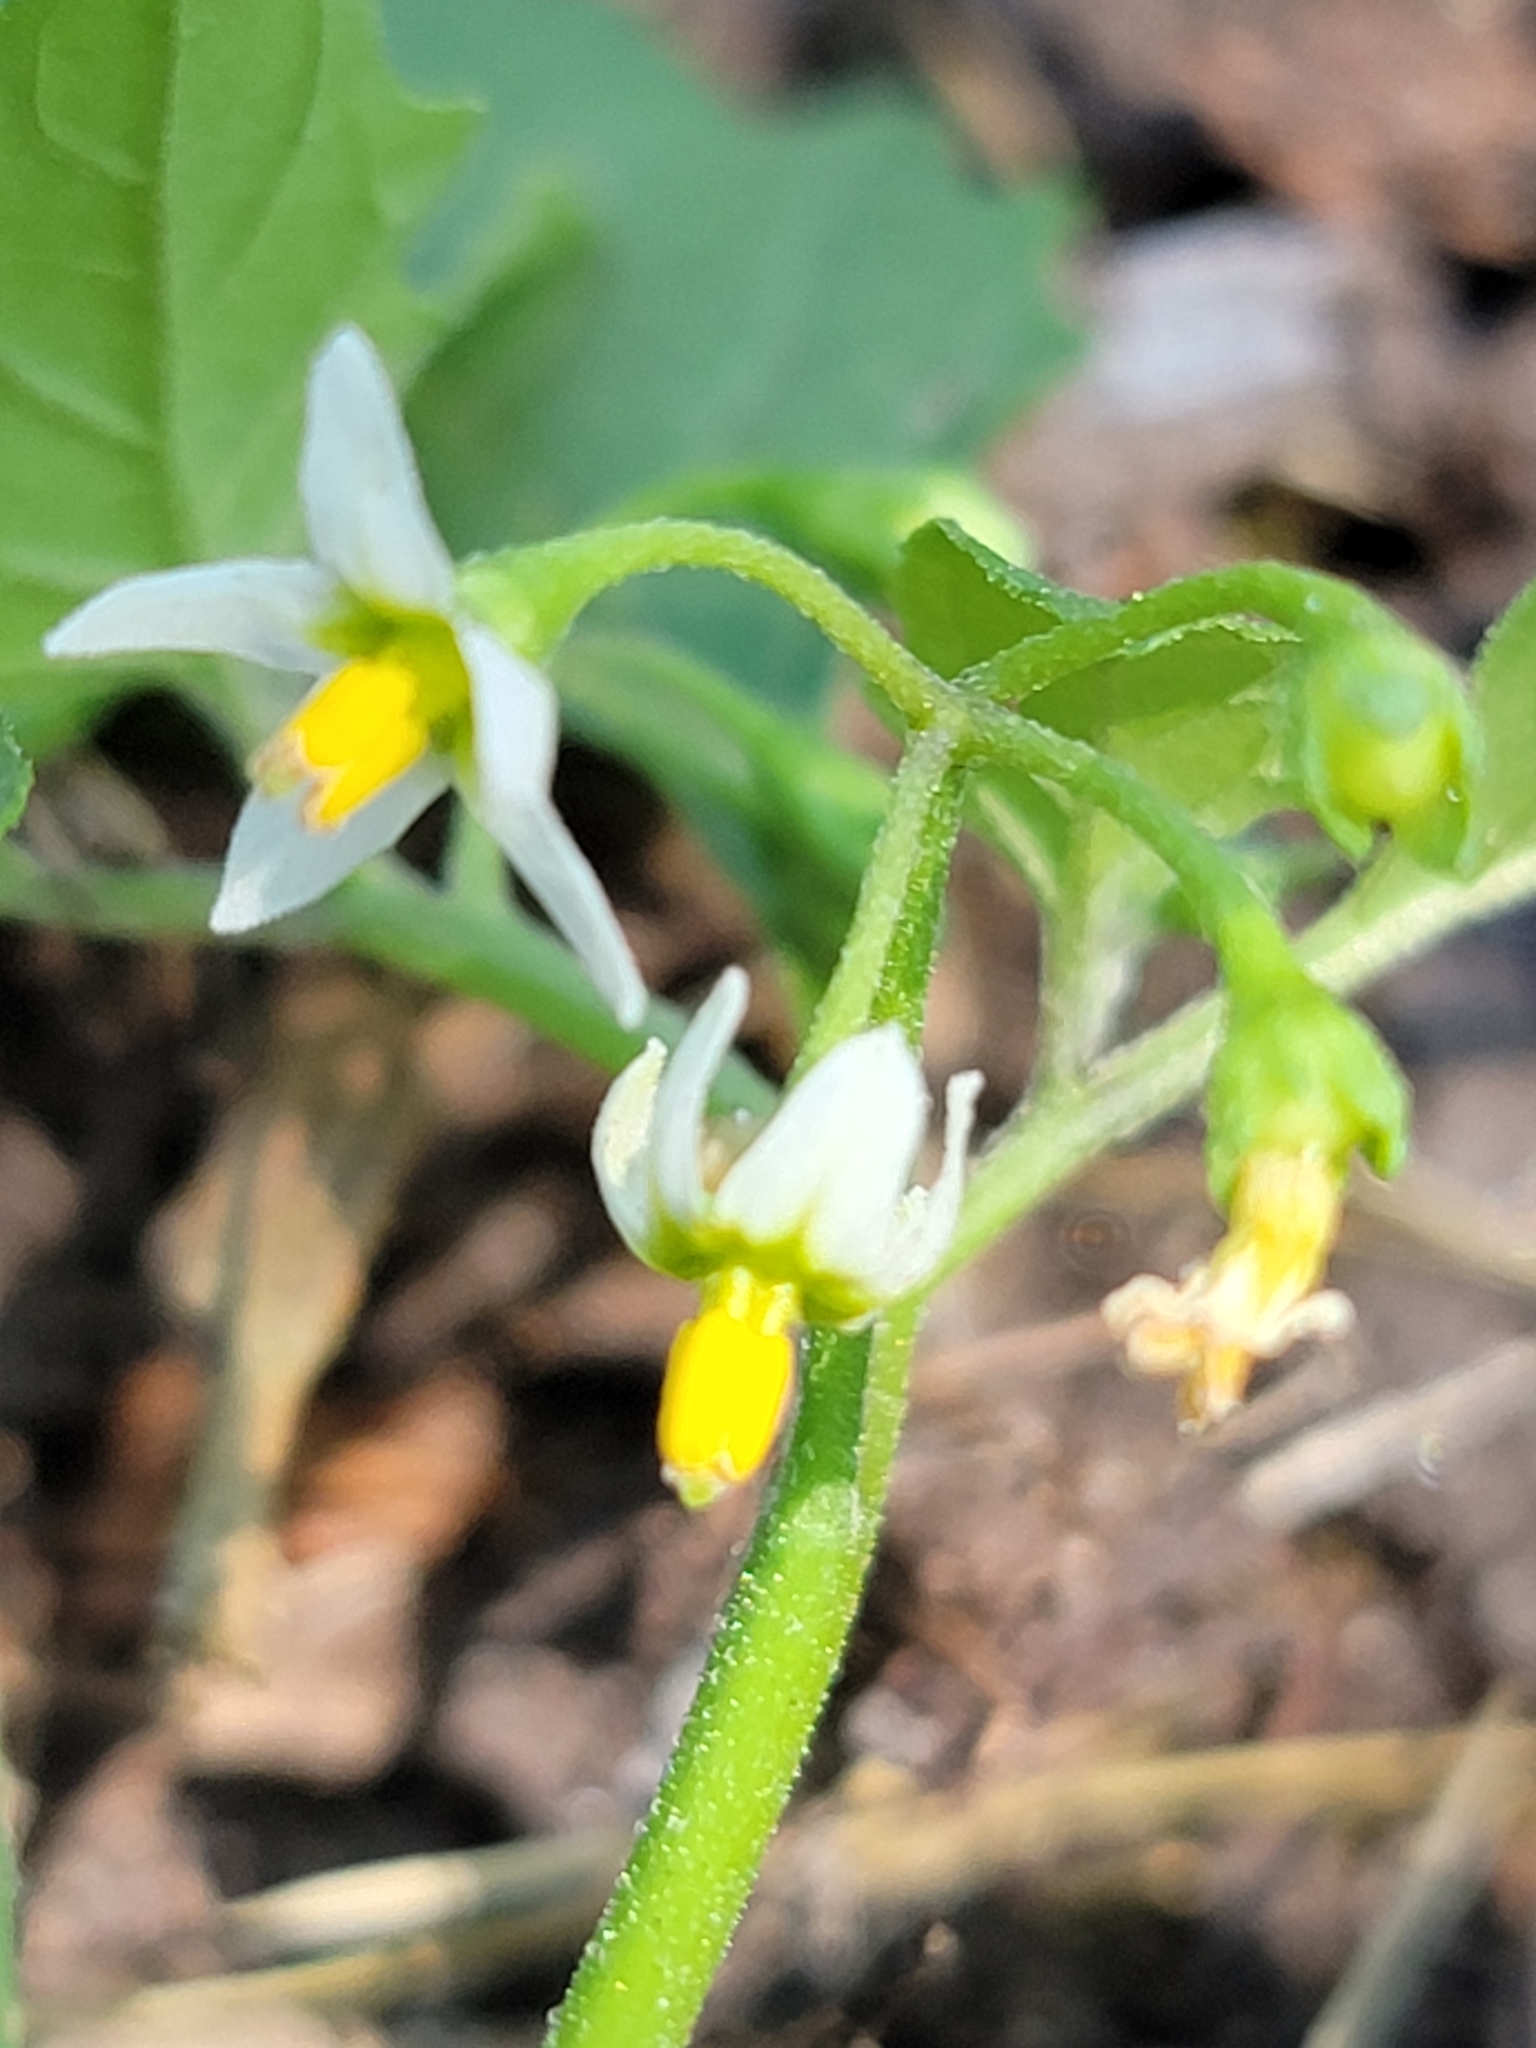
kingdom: Plantae
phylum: Tracheophyta
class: Magnoliopsida
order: Solanales
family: Solanaceae
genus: Solanum
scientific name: Solanum emulans
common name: Eastern black nightshade
